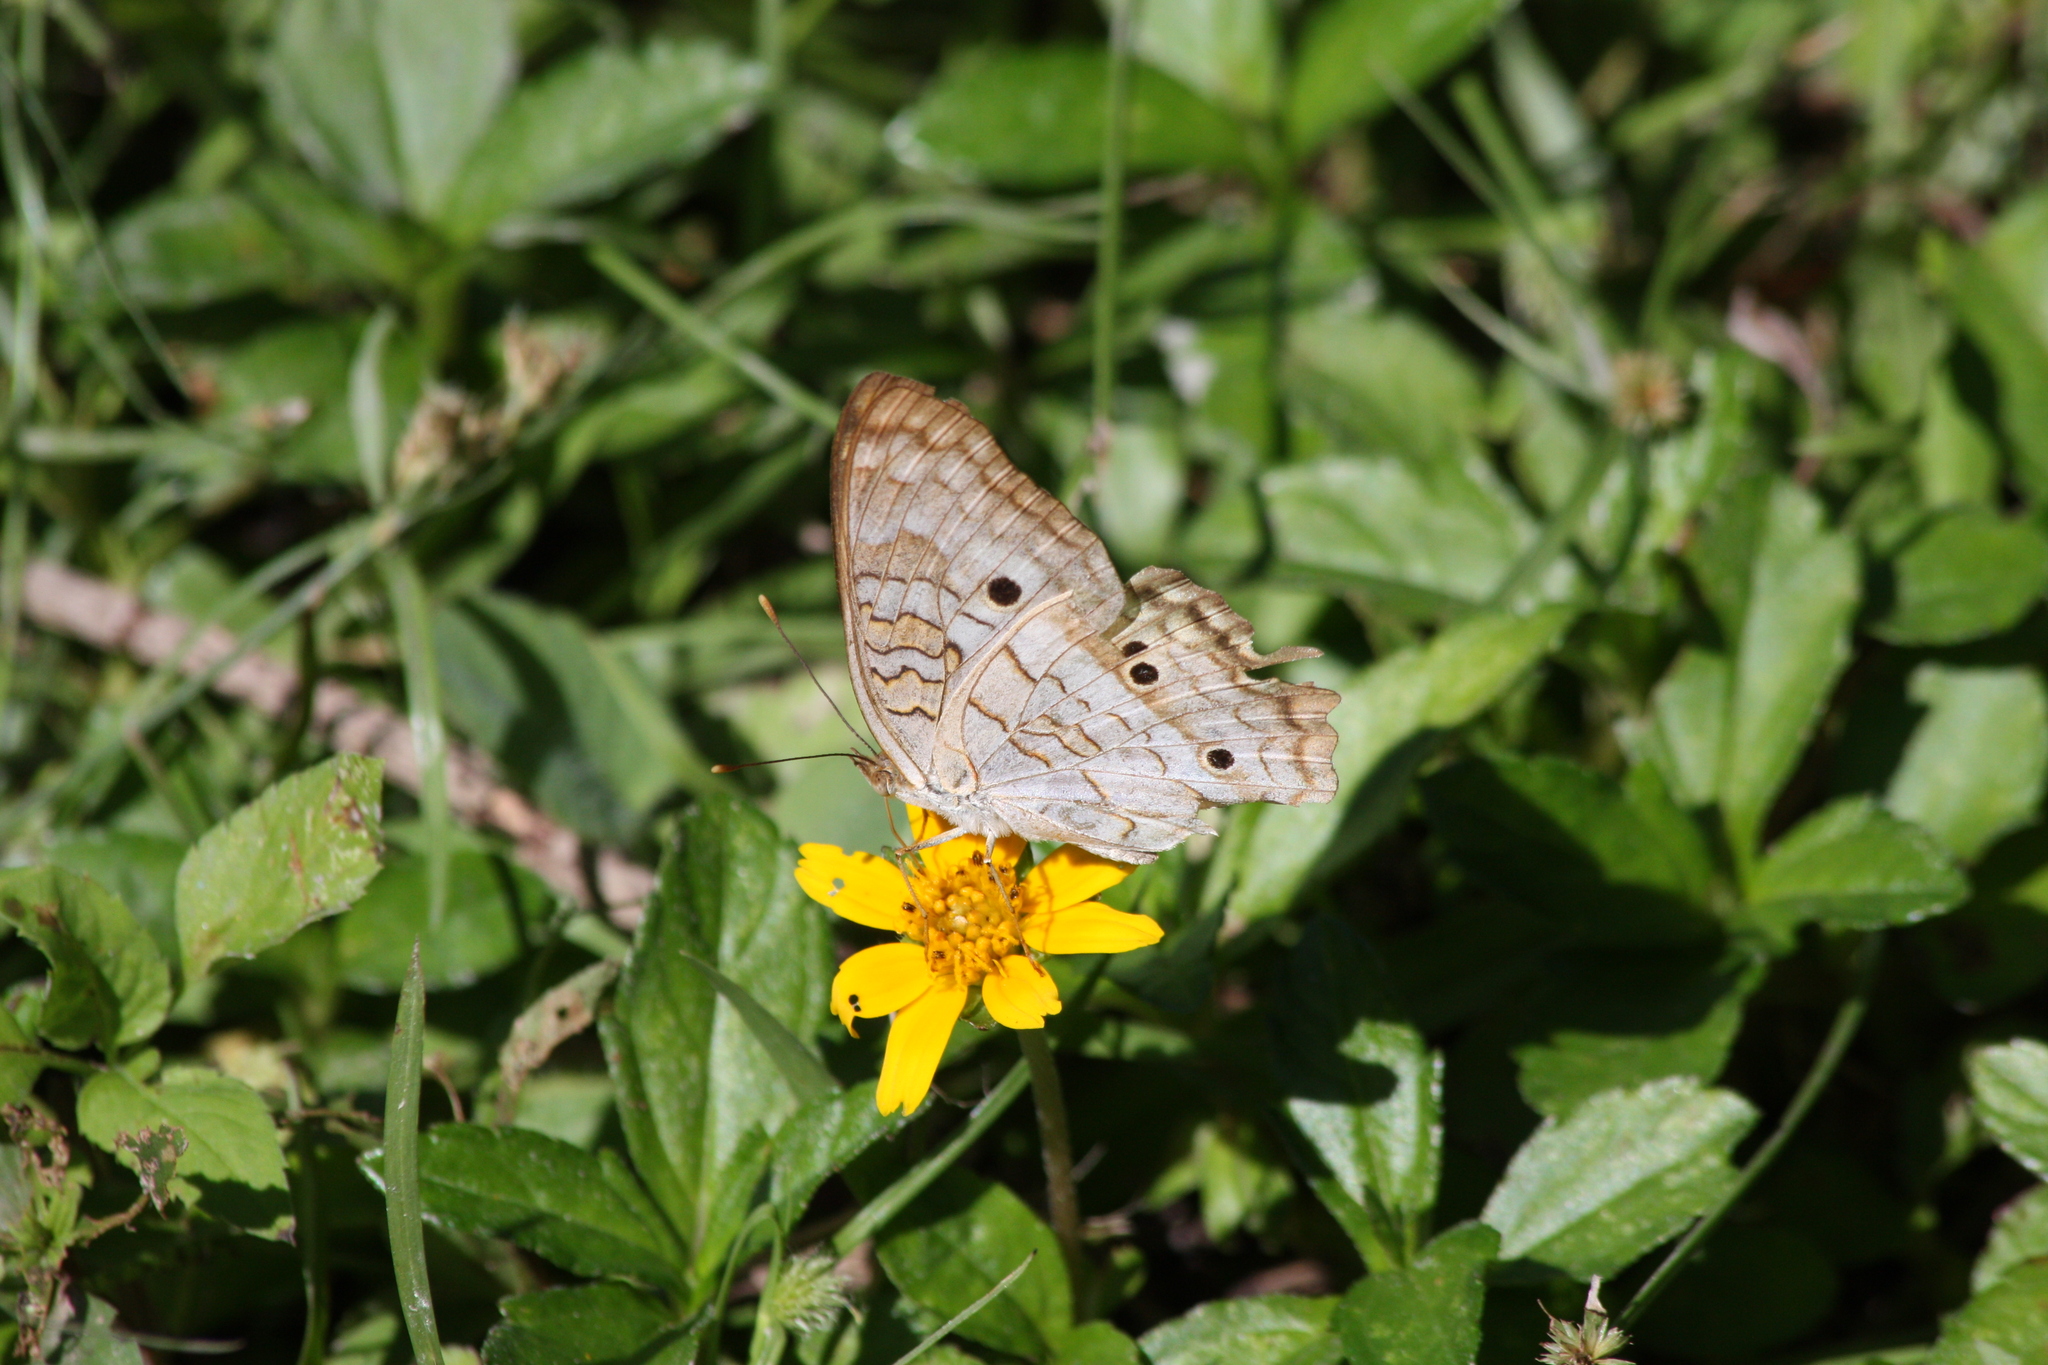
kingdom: Animalia
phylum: Arthropoda
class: Insecta
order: Lepidoptera
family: Nymphalidae
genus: Anartia
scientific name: Anartia jatrophae
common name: White peacock
